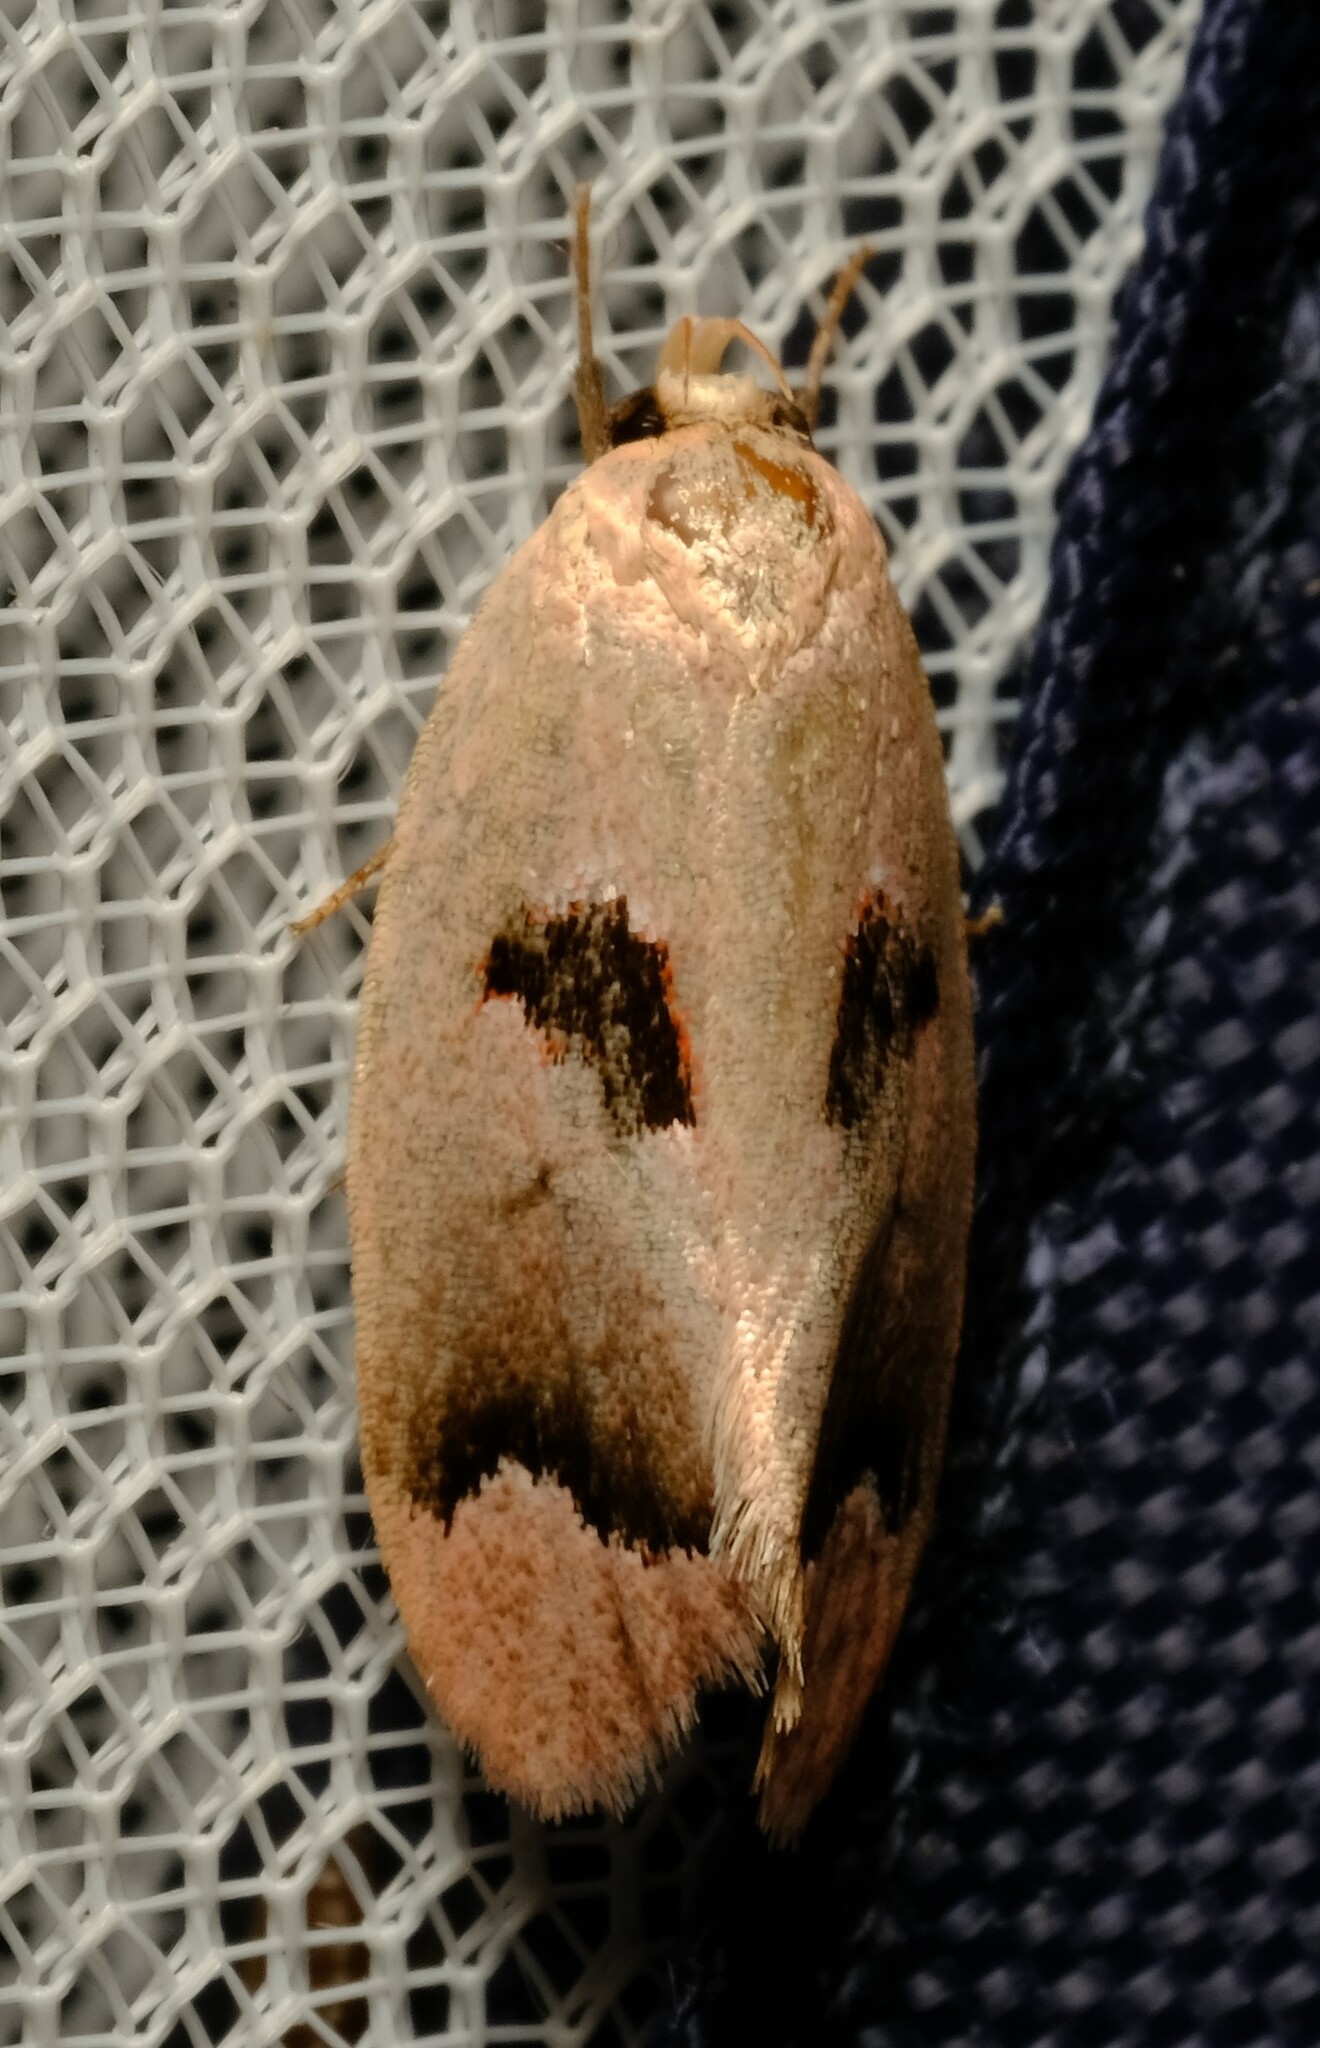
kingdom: Animalia
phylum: Arthropoda
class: Insecta
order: Lepidoptera
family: Oecophoridae
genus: Acanthodela
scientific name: Acanthodela erythrosema
